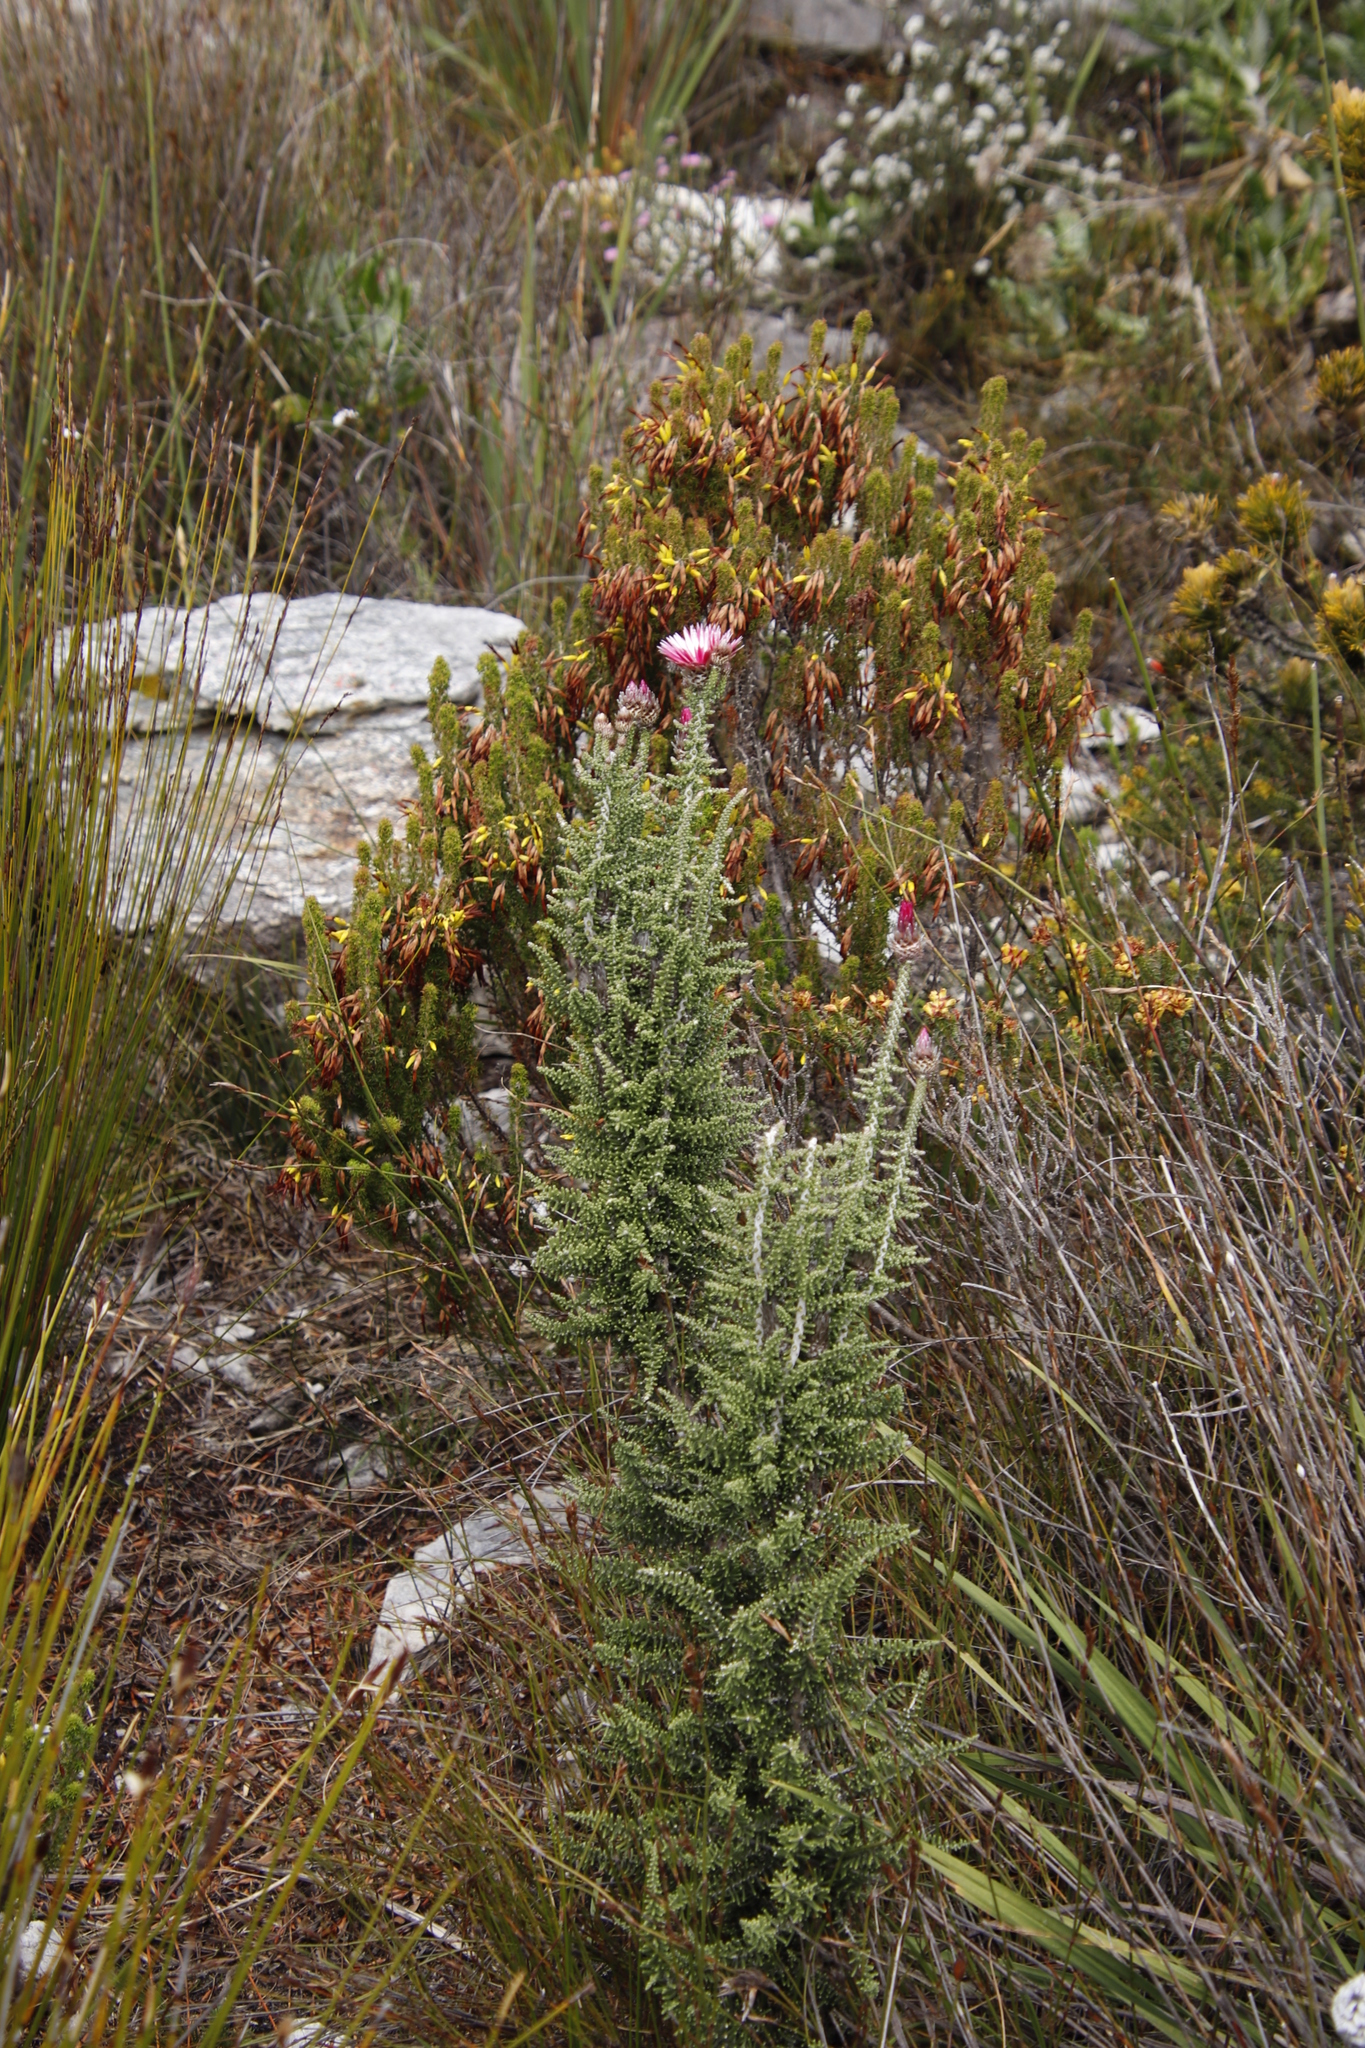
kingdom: Plantae
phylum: Tracheophyta
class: Magnoliopsida
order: Asterales
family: Asteraceae
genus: Phaenocoma
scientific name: Phaenocoma prolifera
